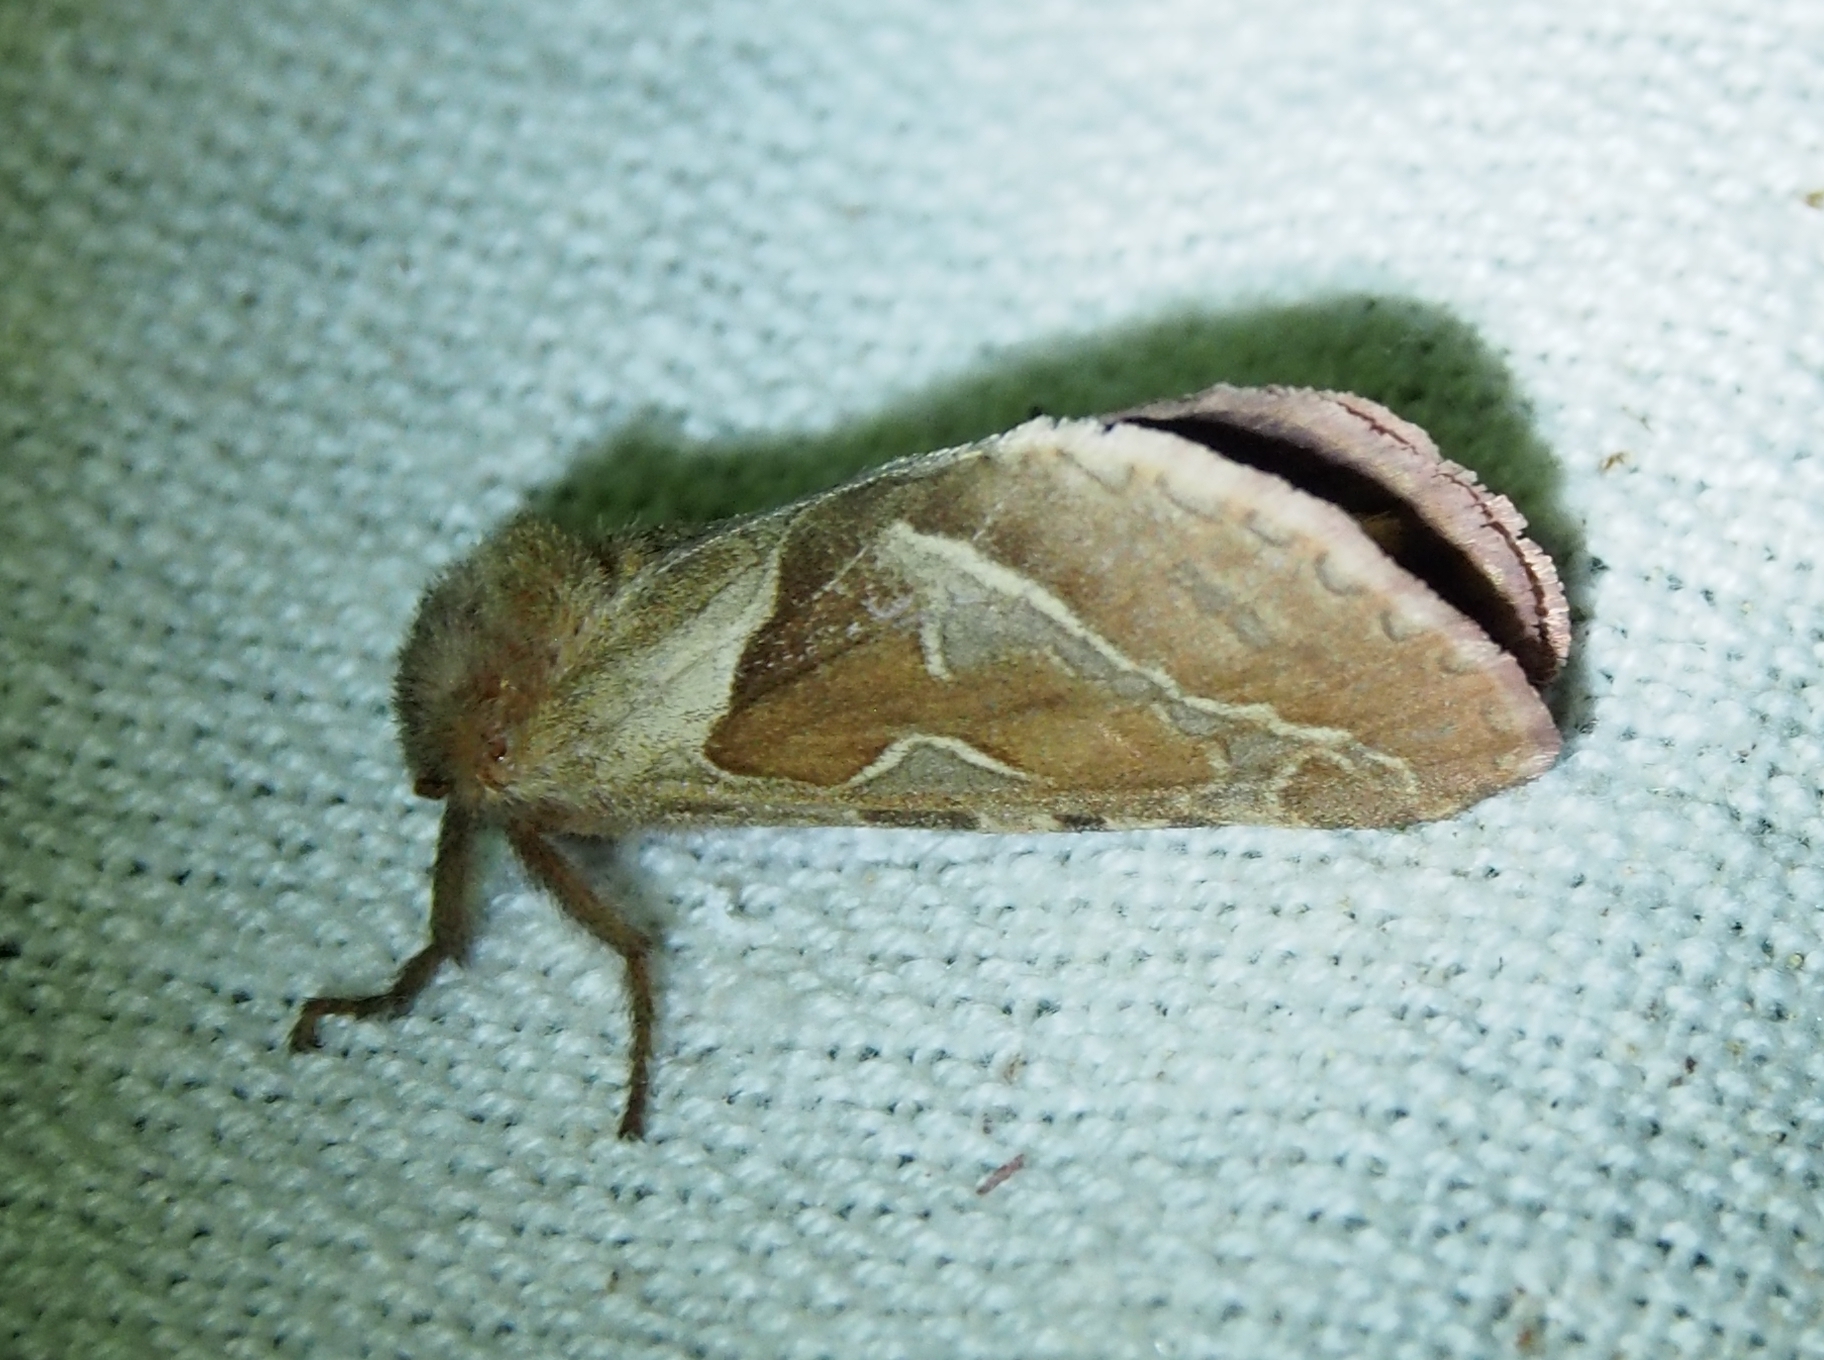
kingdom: Animalia
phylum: Arthropoda
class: Insecta
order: Lepidoptera
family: Hepialidae
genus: Triodia
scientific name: Triodia sylvina
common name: Orange swift
